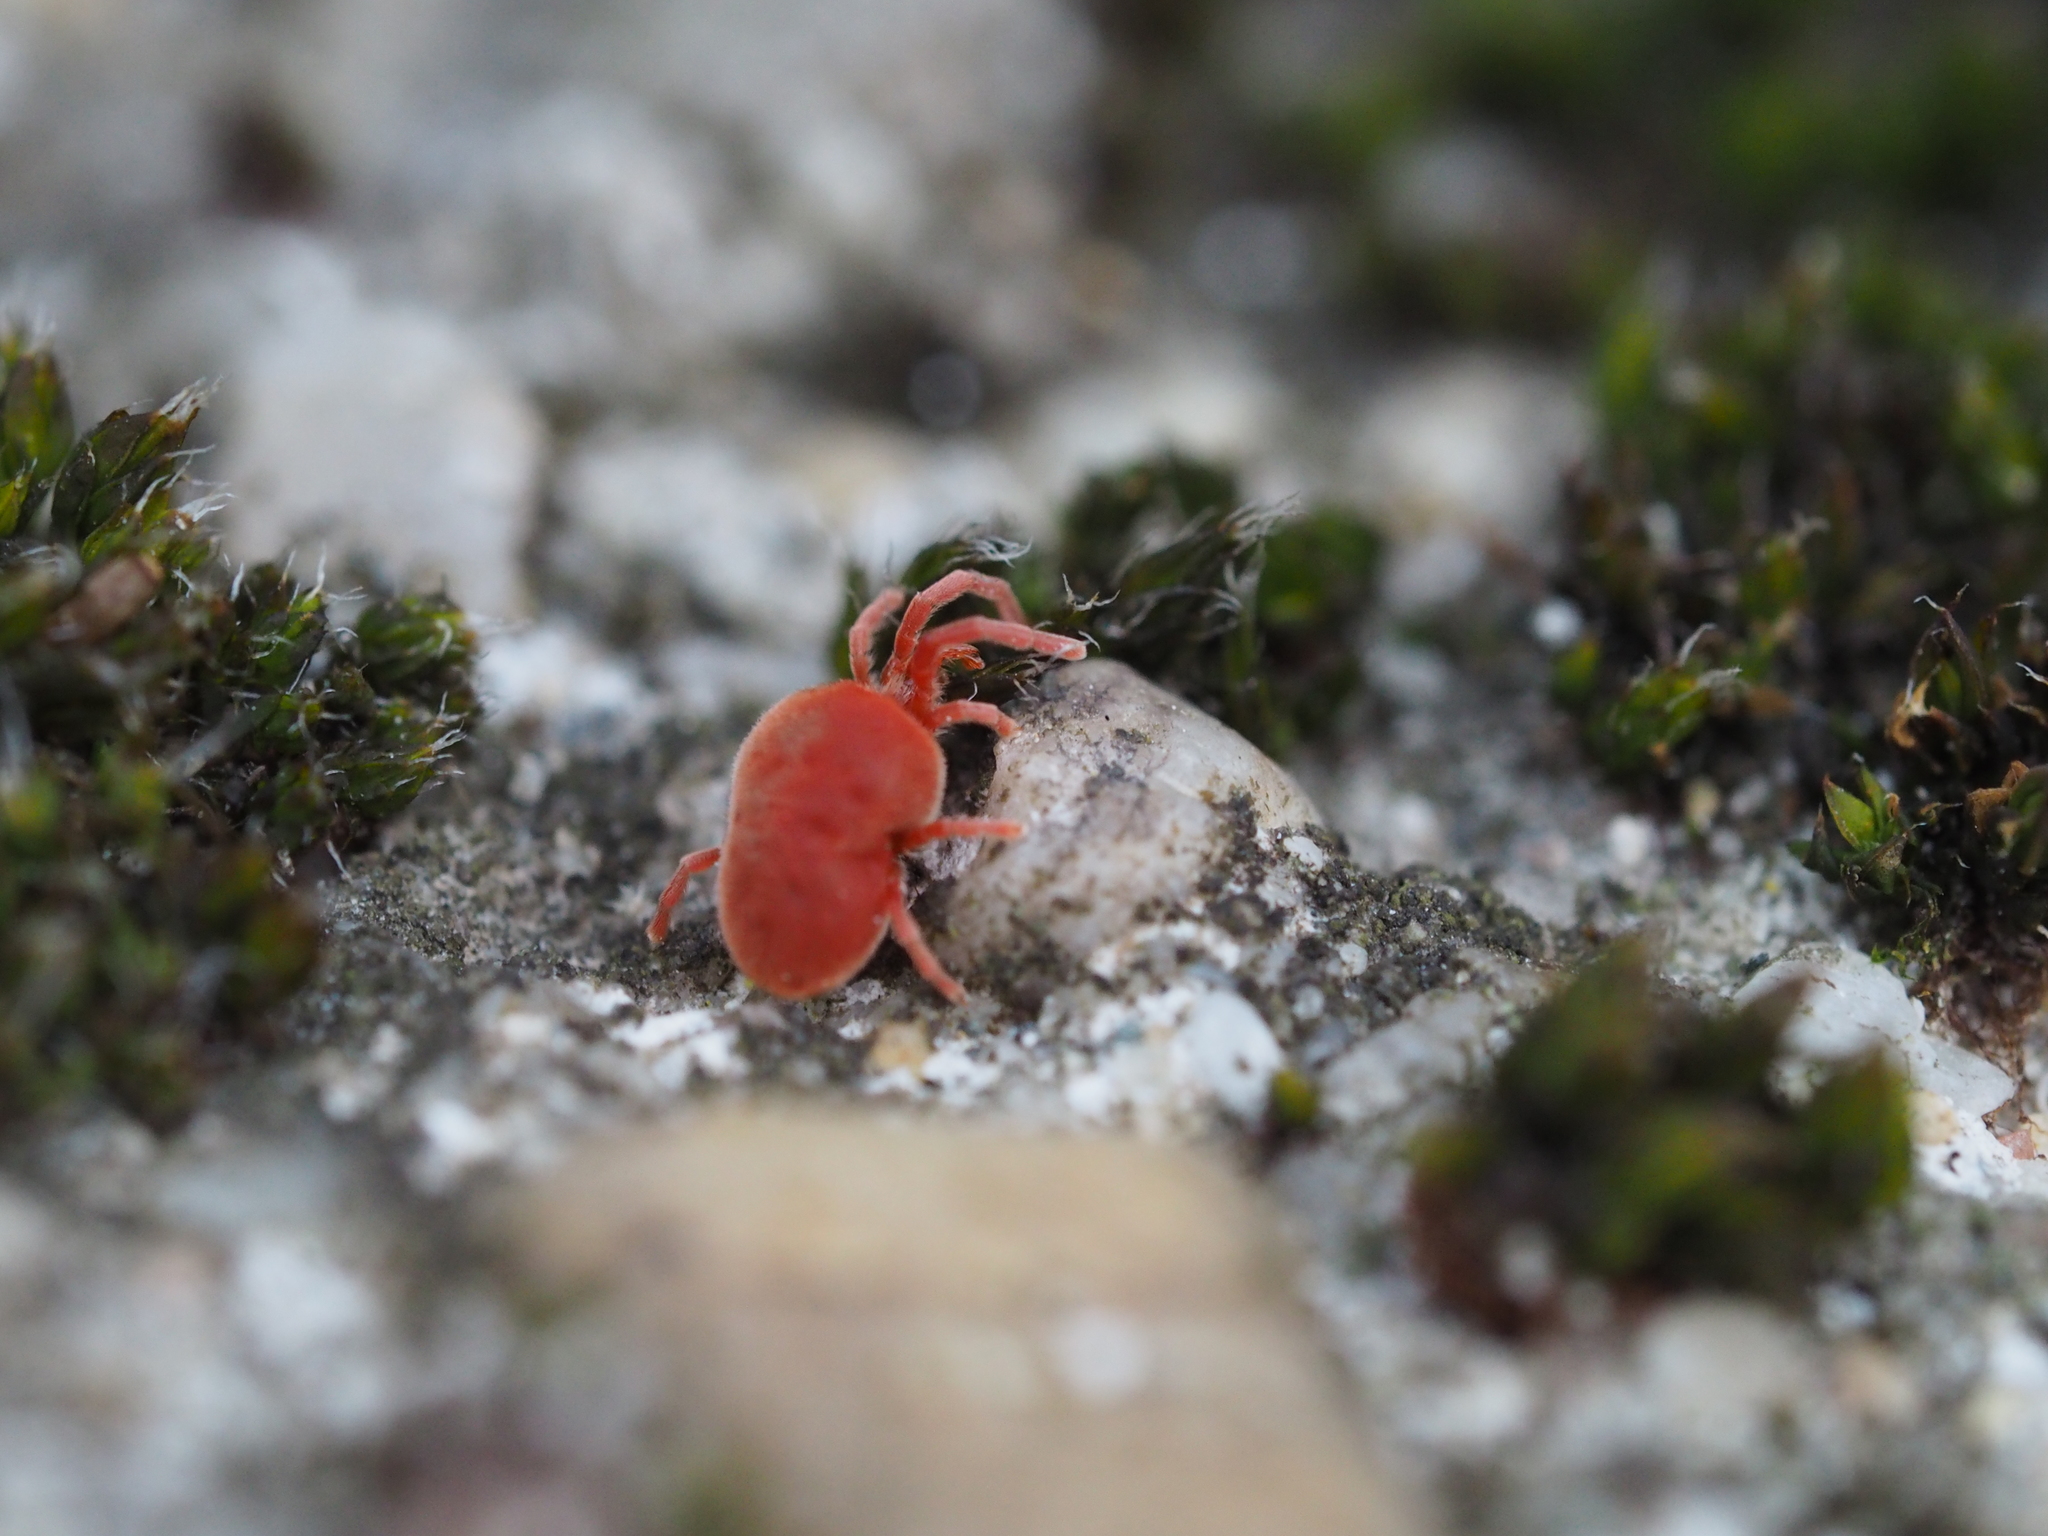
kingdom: Animalia
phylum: Arthropoda
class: Arachnida
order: Trombidiformes
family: Trombidiidae
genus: Allothrombium
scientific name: Allothrombium
